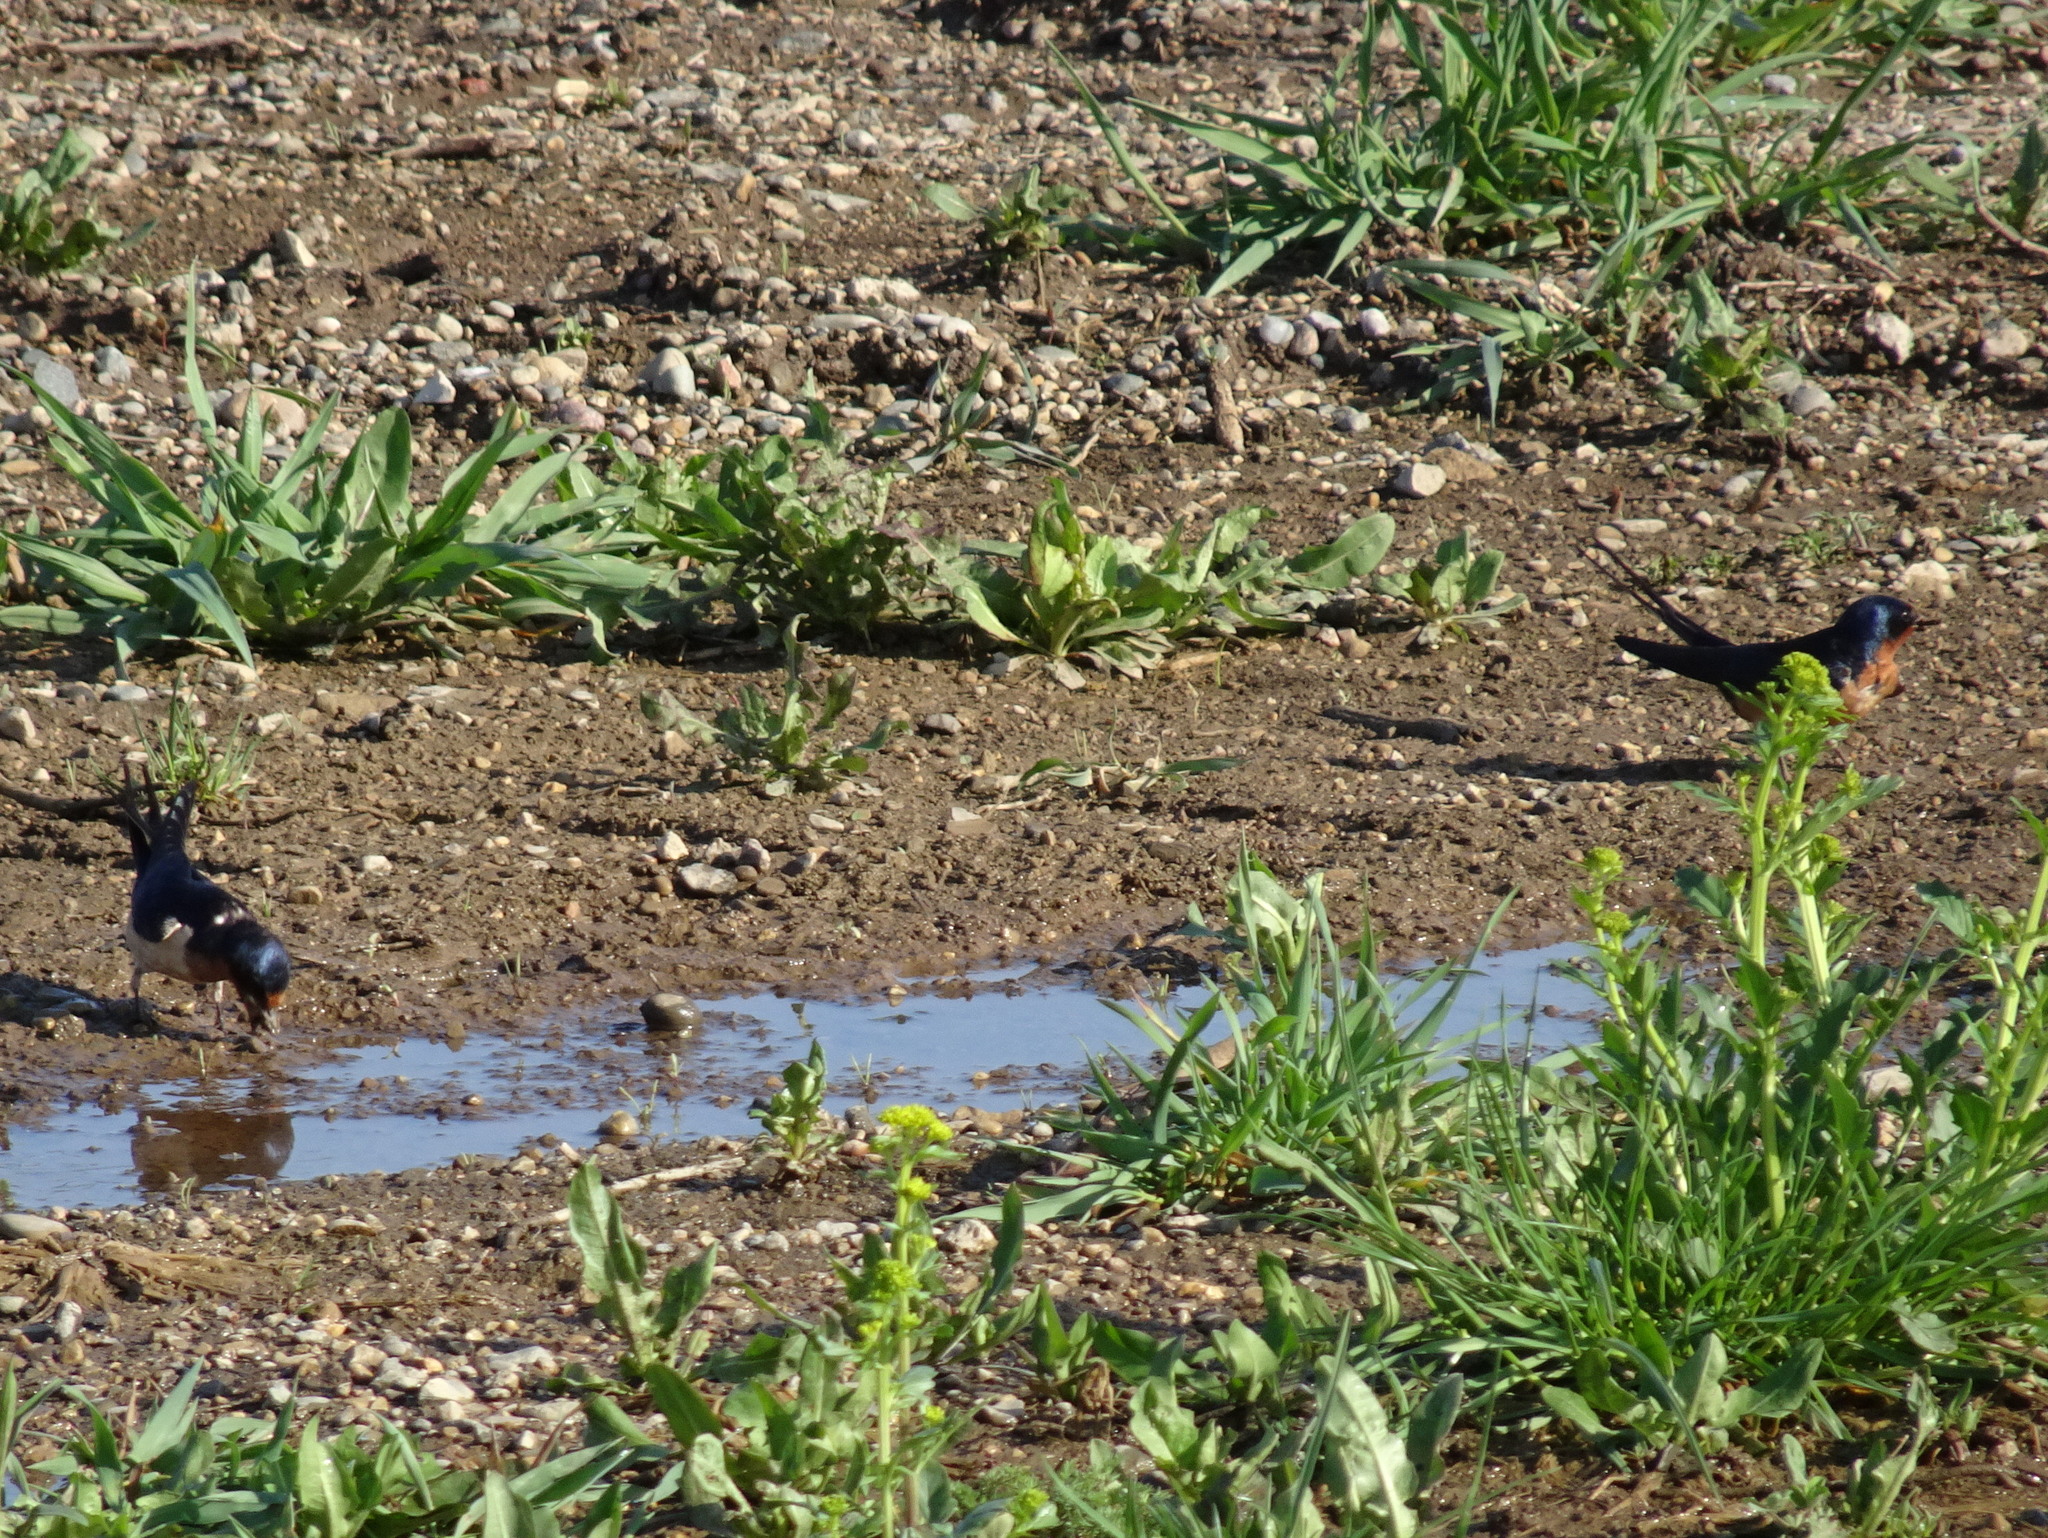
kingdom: Animalia
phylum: Chordata
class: Aves
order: Passeriformes
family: Hirundinidae
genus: Hirundo
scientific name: Hirundo rustica
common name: Barn swallow
